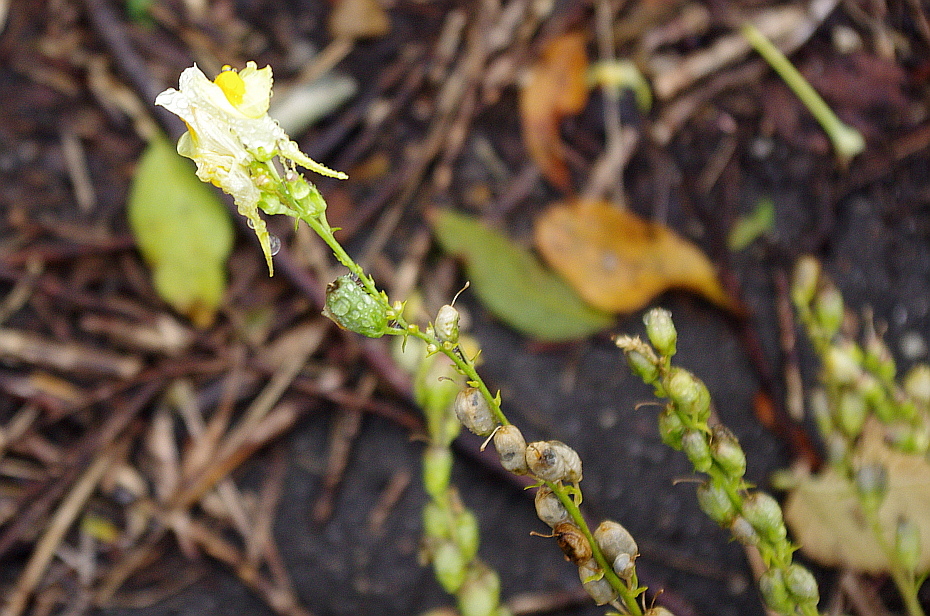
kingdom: Plantae
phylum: Tracheophyta
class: Magnoliopsida
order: Lamiales
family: Plantaginaceae
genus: Linaria
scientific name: Linaria vulgaris
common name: Butter and eggs
